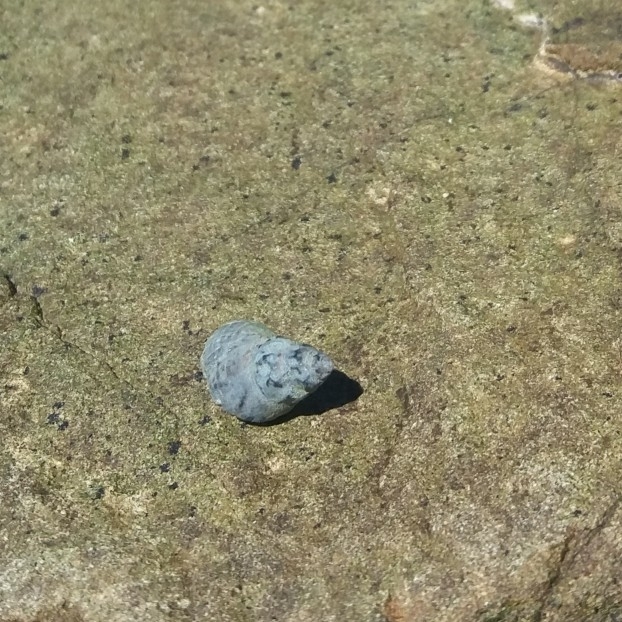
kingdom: Animalia
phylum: Mollusca
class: Gastropoda
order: Littorinimorpha
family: Littorinidae
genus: Austrolittorina
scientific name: Austrolittorina antipodum
